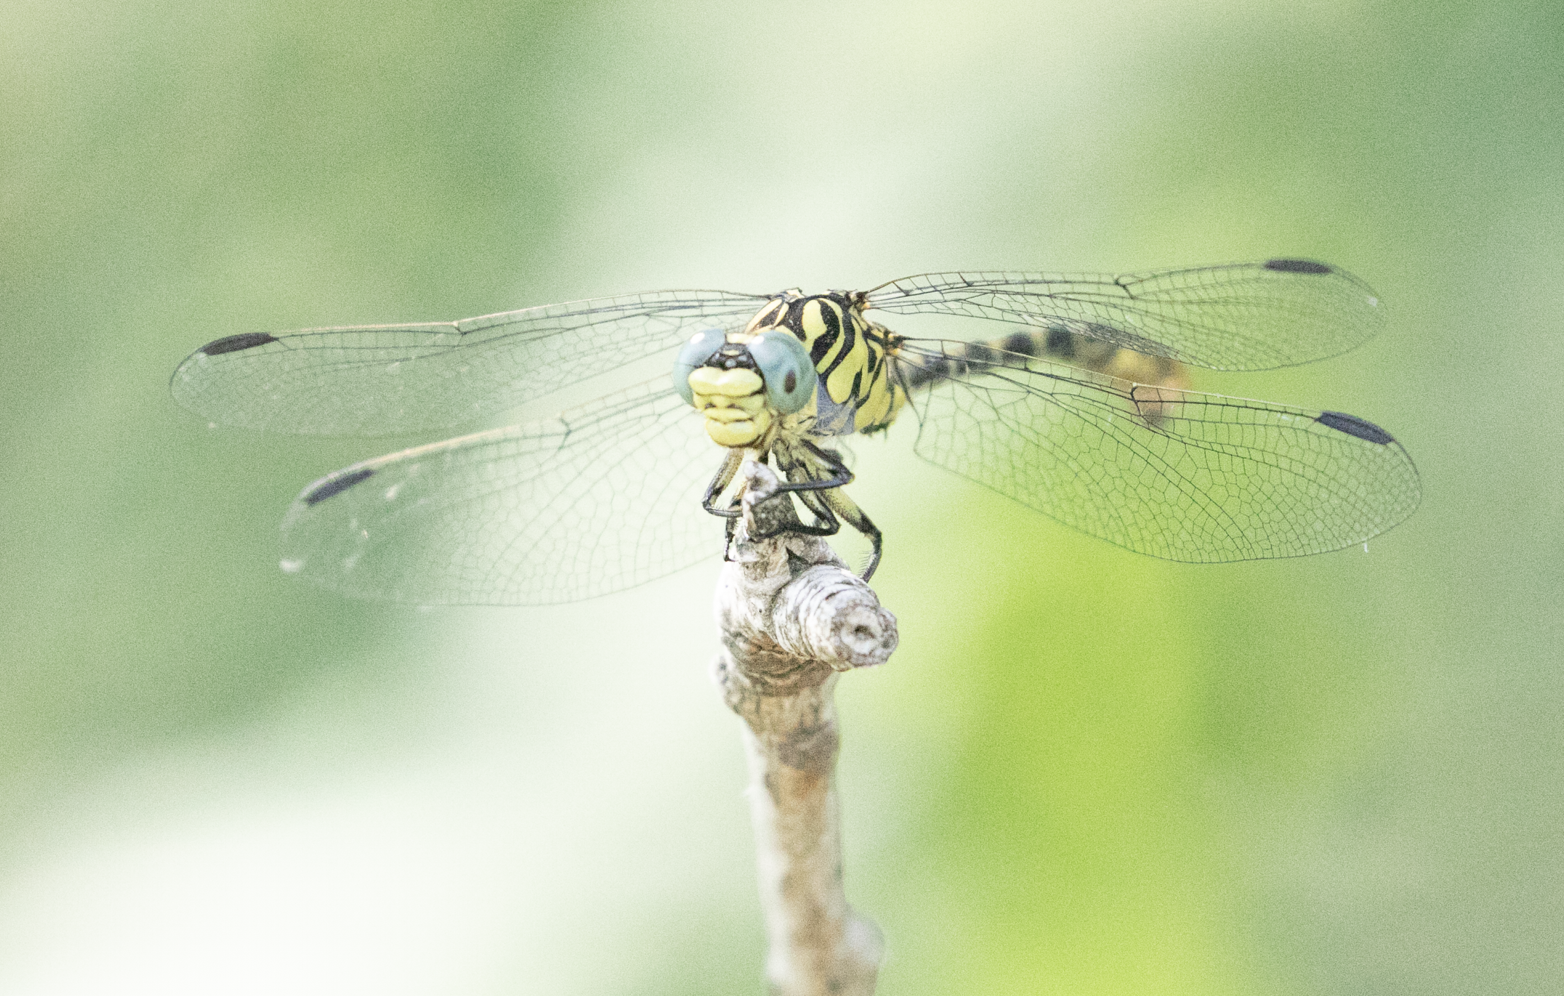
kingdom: Animalia
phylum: Arthropoda
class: Insecta
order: Odonata
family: Gomphidae
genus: Onychogomphus
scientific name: Onychogomphus forcipatus
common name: Small pincertail
